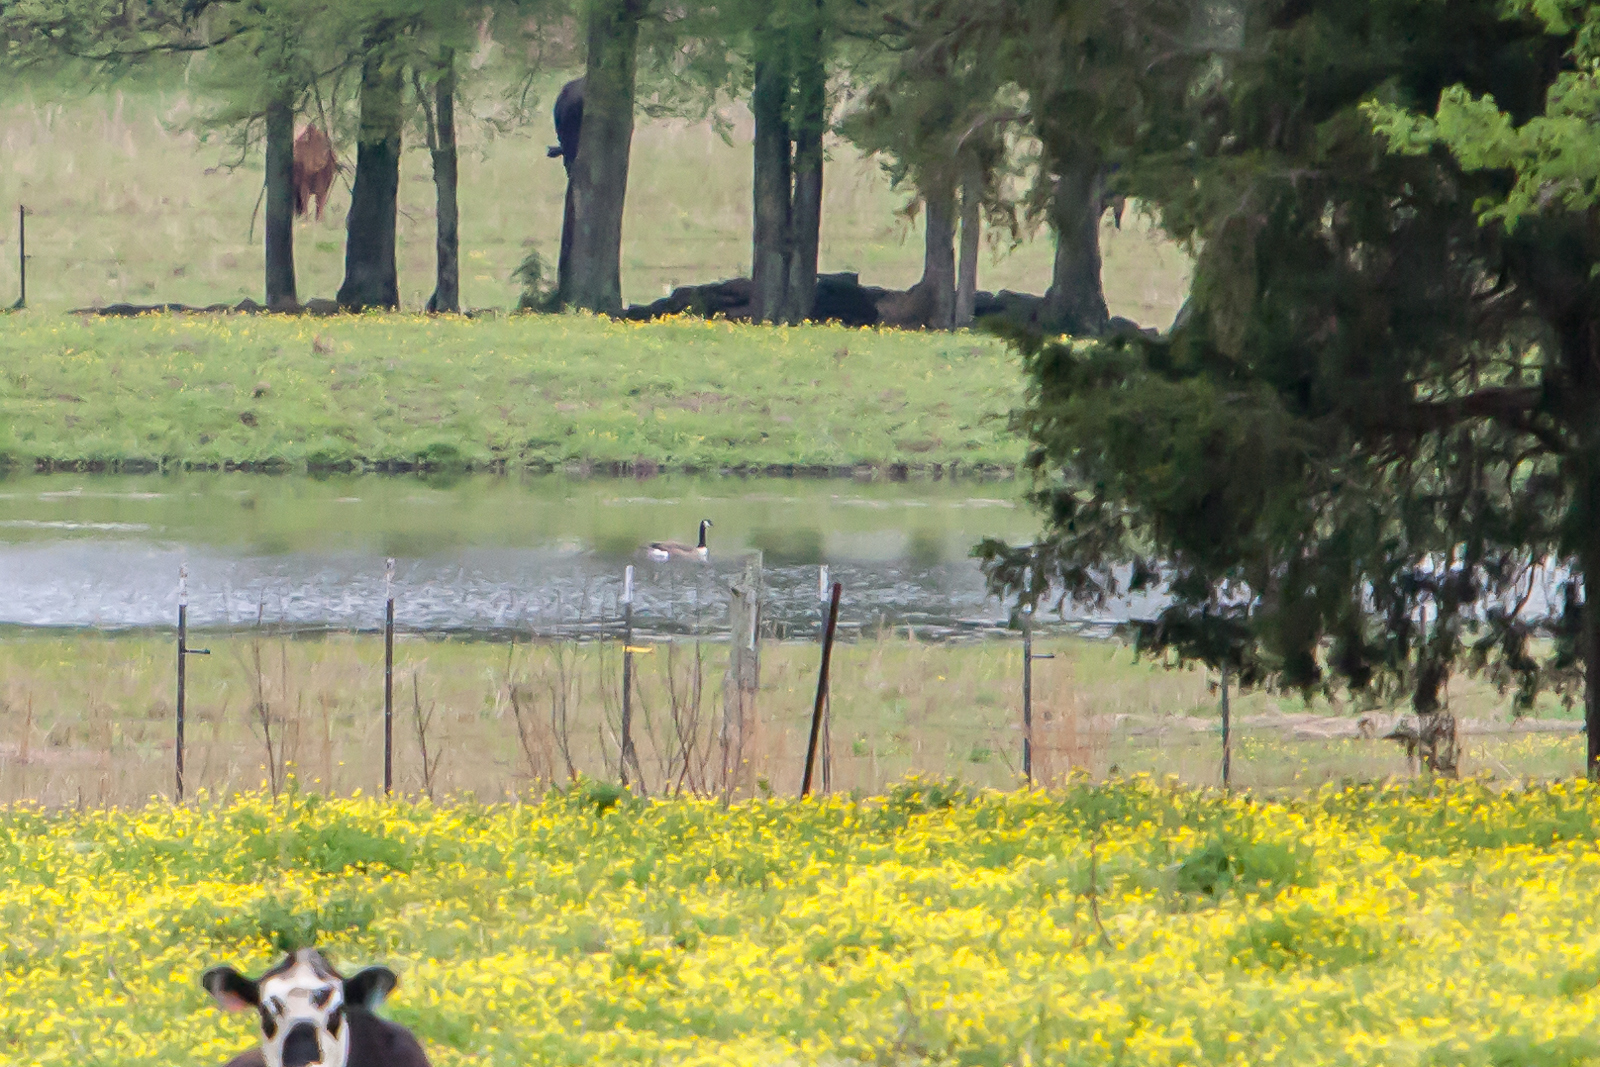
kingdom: Animalia
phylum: Chordata
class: Aves
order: Anseriformes
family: Anatidae
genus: Branta
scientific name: Branta canadensis
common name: Canada goose
